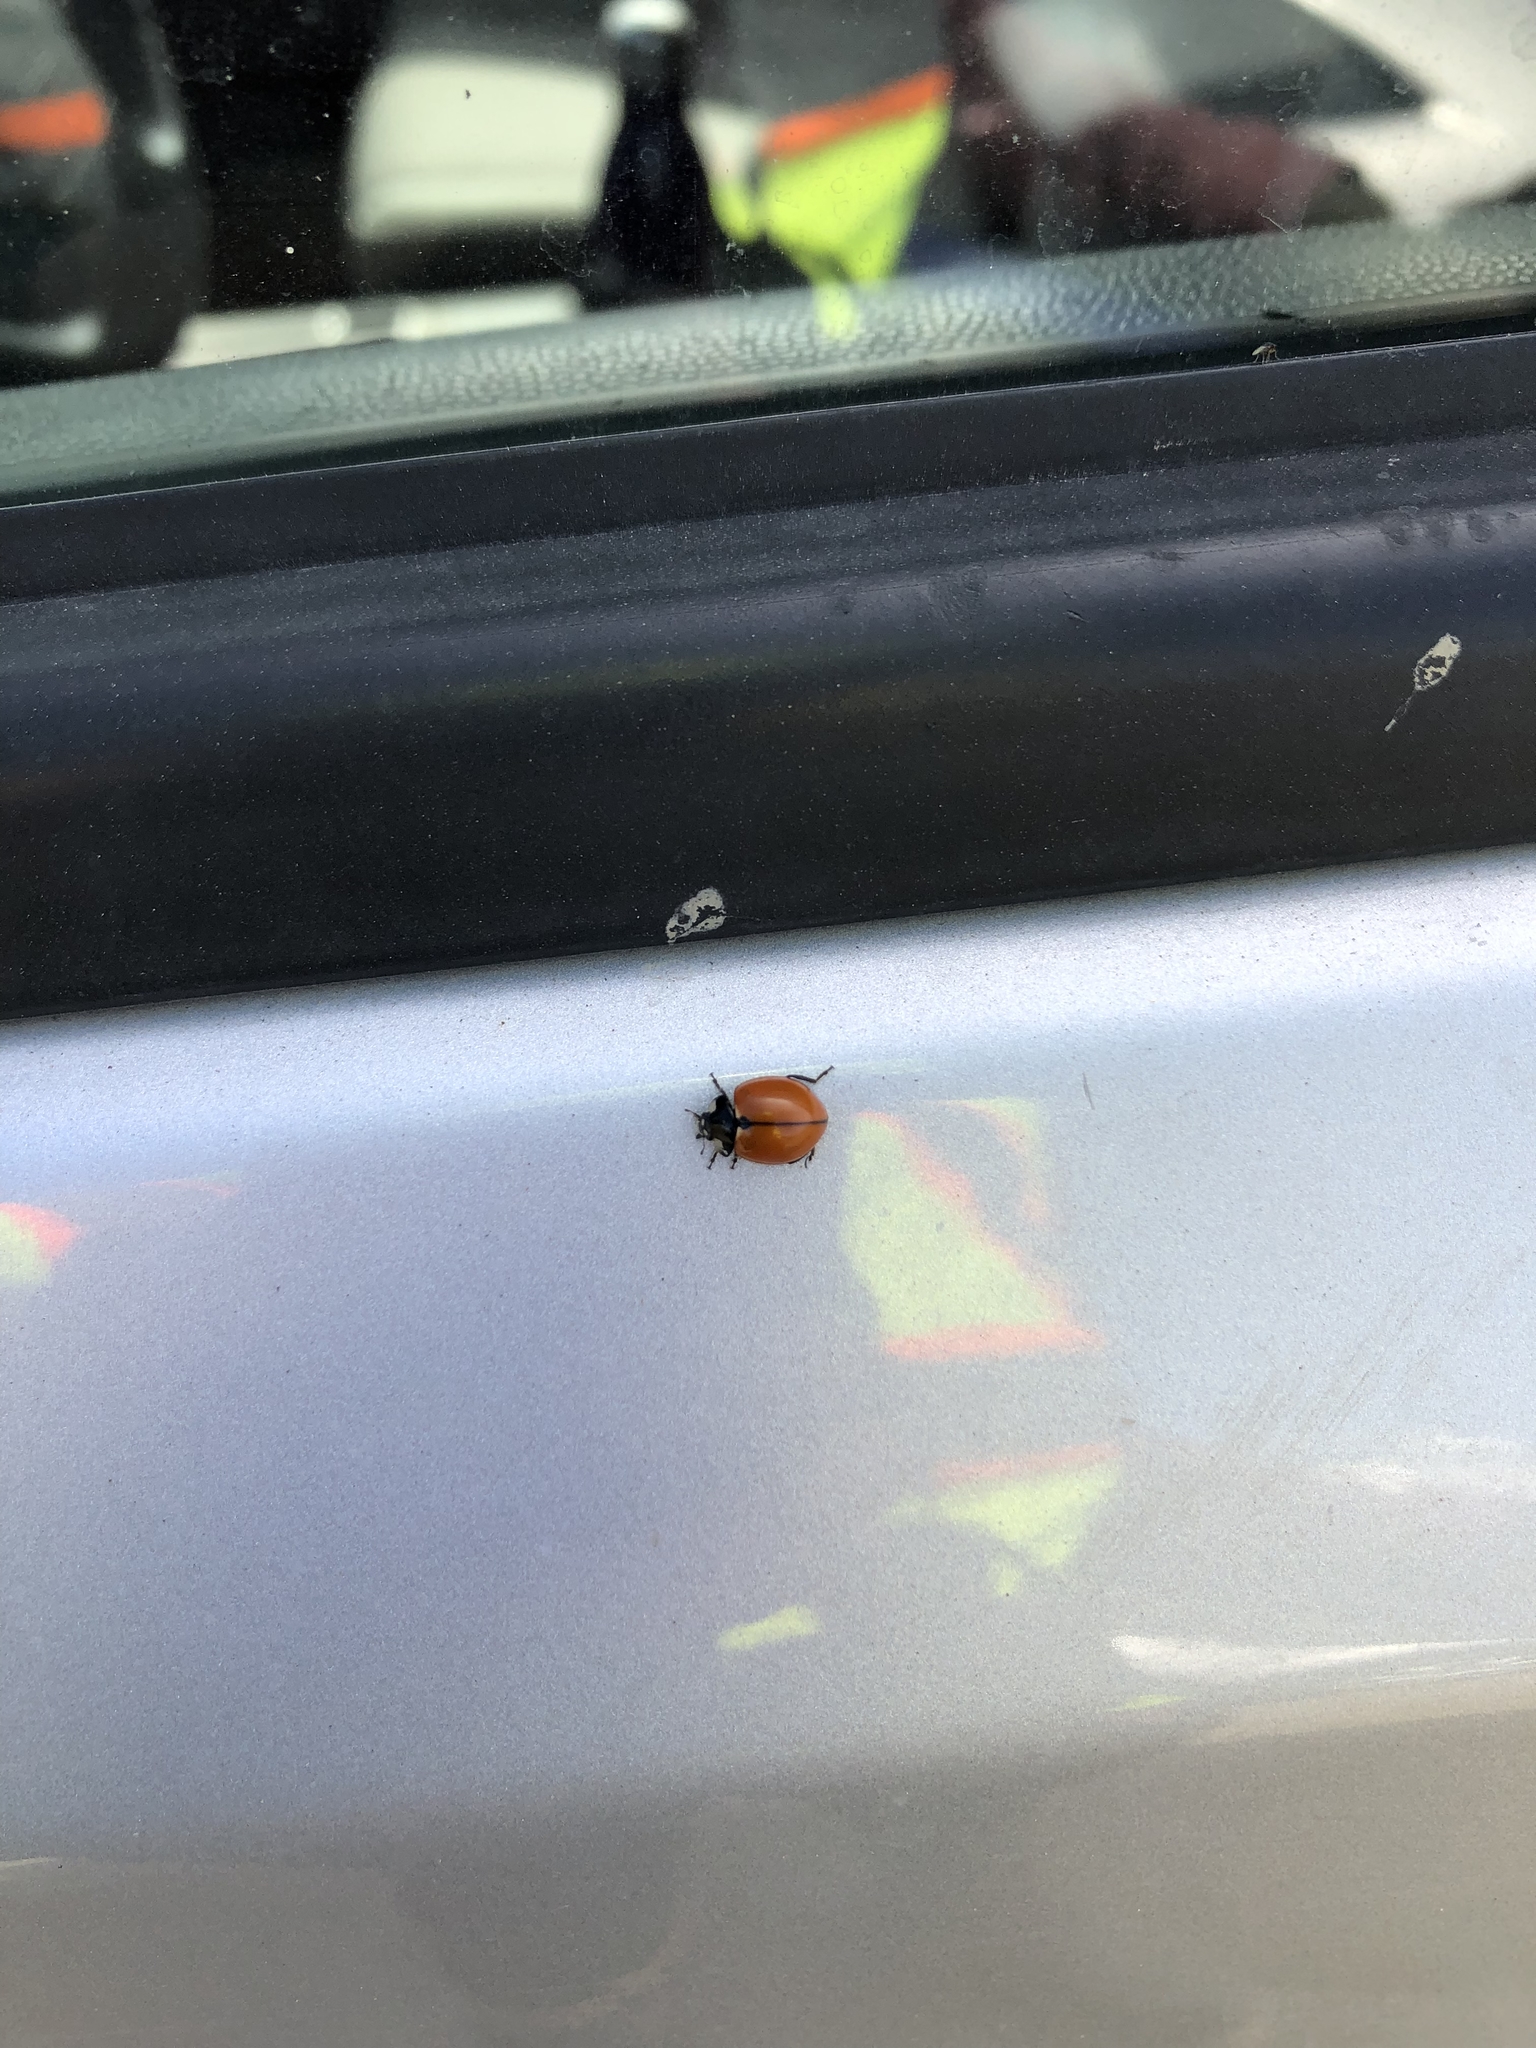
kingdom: Animalia
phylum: Arthropoda
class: Insecta
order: Coleoptera
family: Coccinellidae
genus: Coccinella
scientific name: Coccinella californica
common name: Lady beetle
